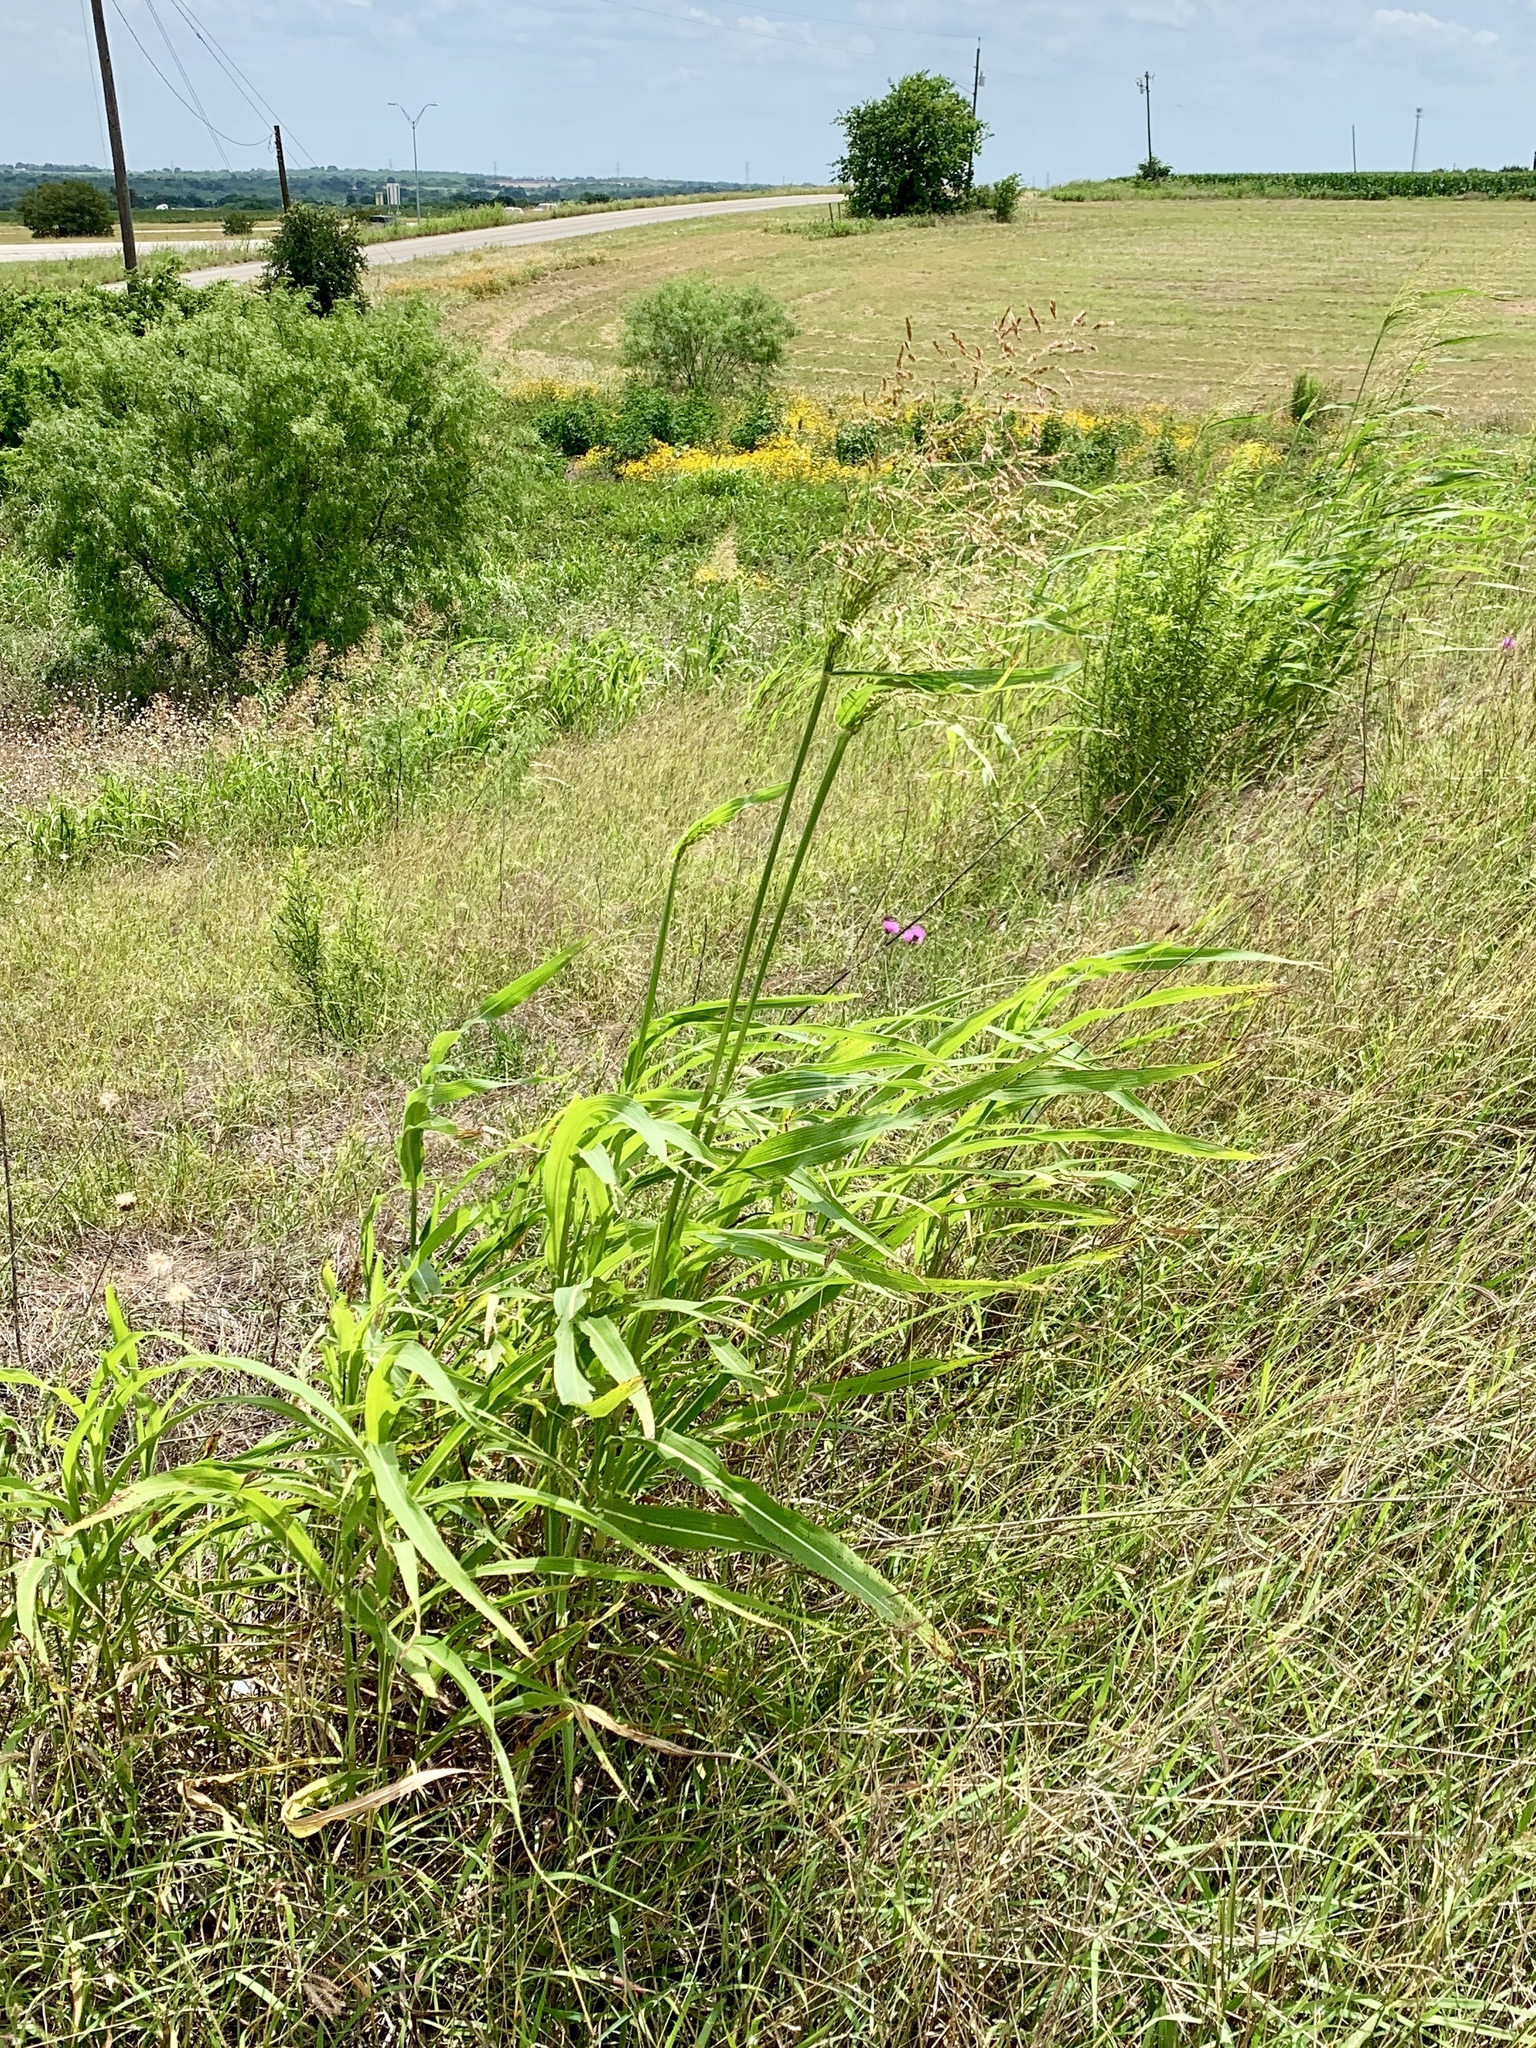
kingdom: Plantae
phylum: Tracheophyta
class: Liliopsida
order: Poales
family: Poaceae
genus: Sorghum
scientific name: Sorghum halepense
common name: Johnson-grass
